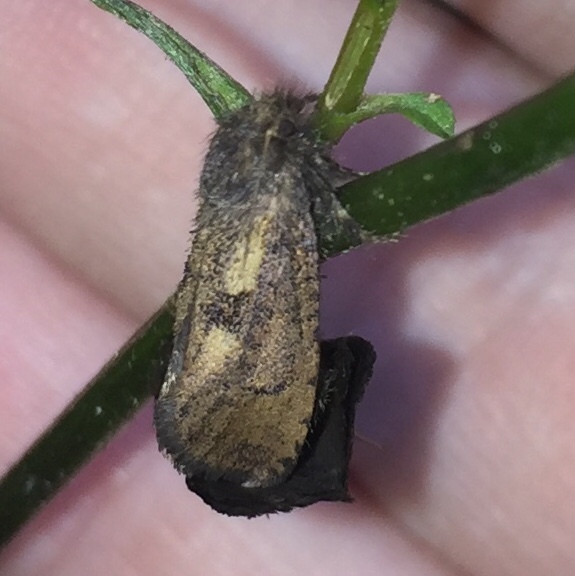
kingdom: Animalia
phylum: Arthropoda
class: Insecta
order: Lepidoptera
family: Tineidae
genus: Acrolophus
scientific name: Acrolophus mora
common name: Dark acrolophus
